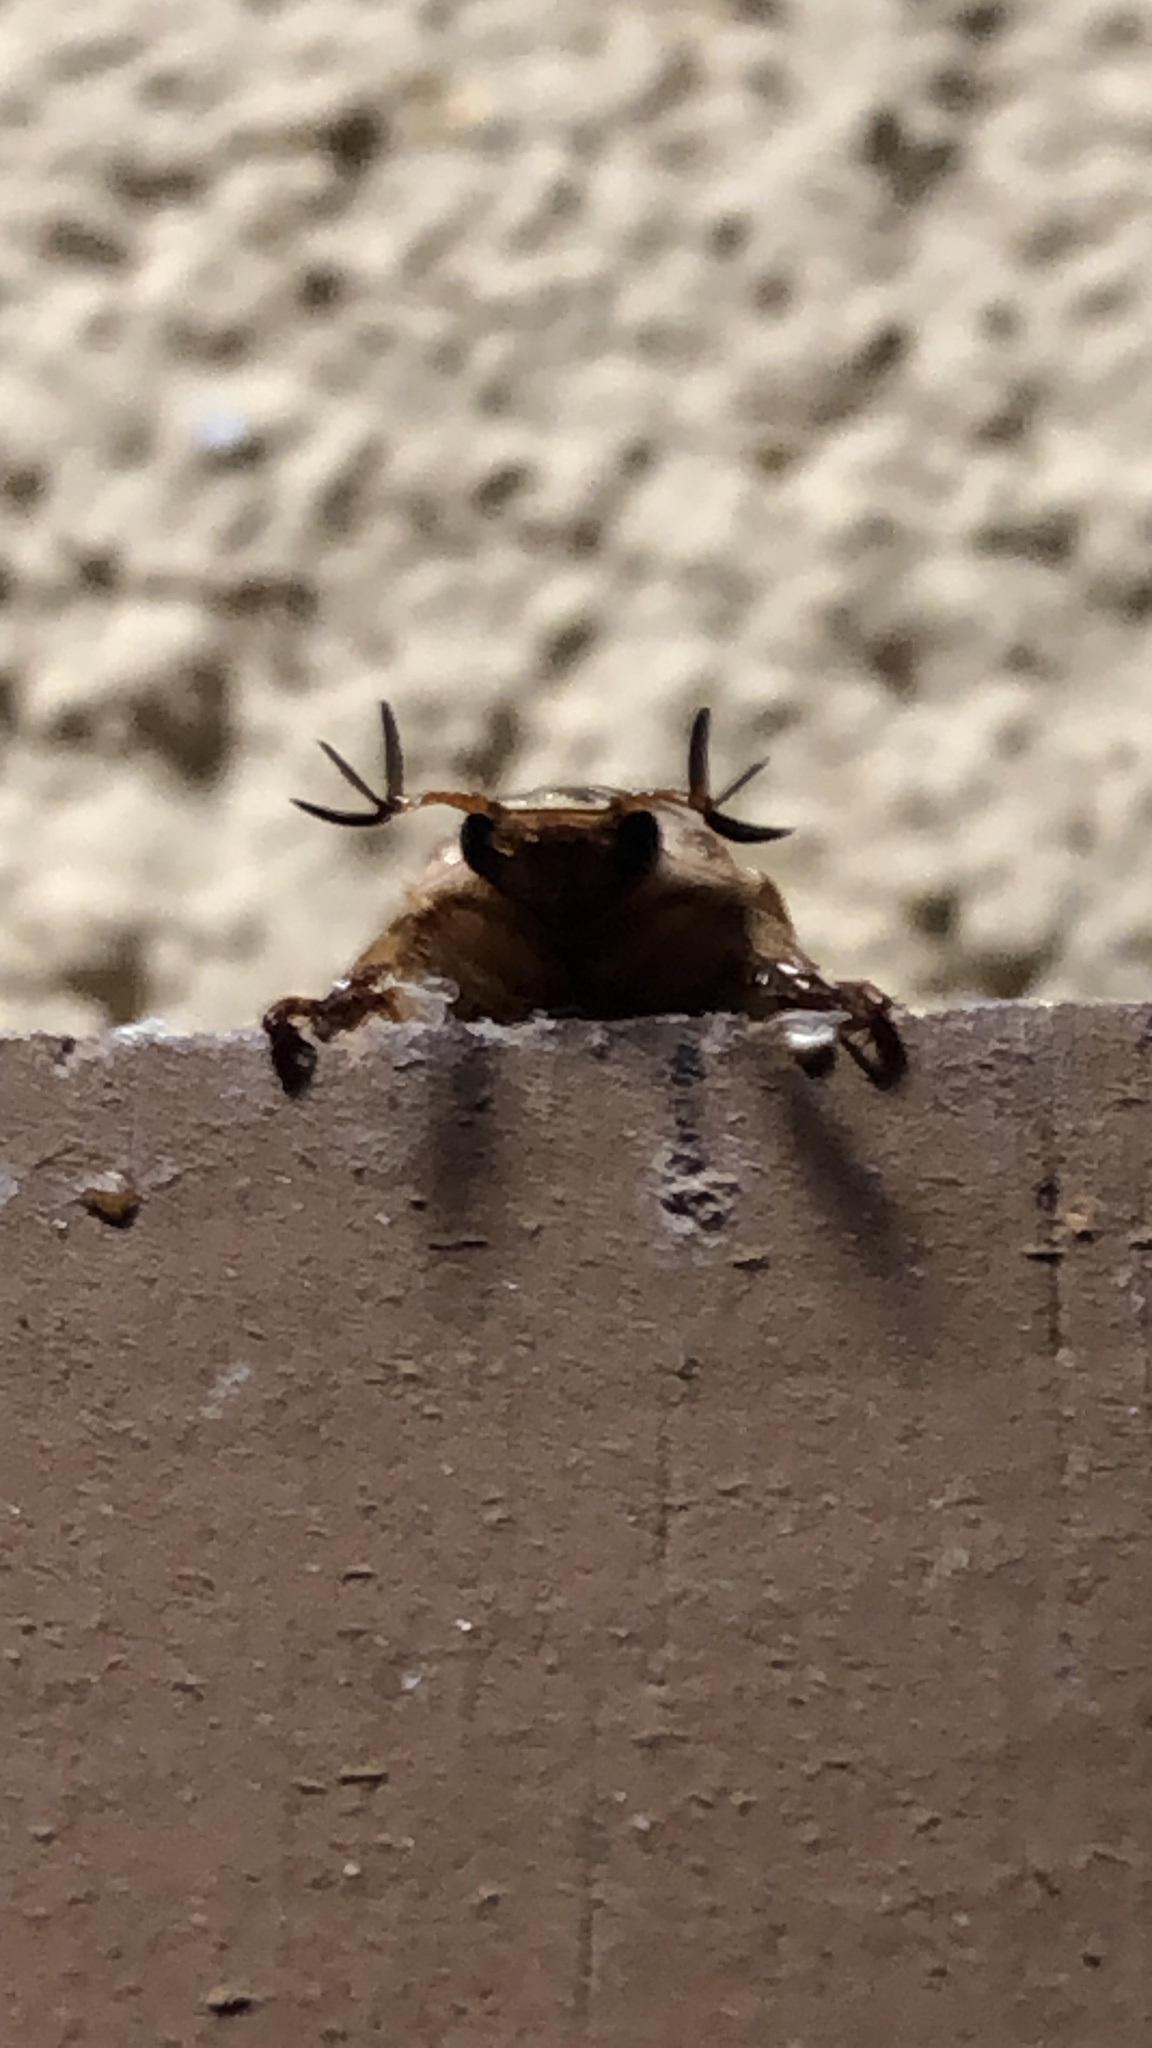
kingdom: Animalia
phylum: Arthropoda
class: Insecta
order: Coleoptera
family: Scarabaeidae
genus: Exomala
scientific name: Exomala orientalis
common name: Oriental beetle
